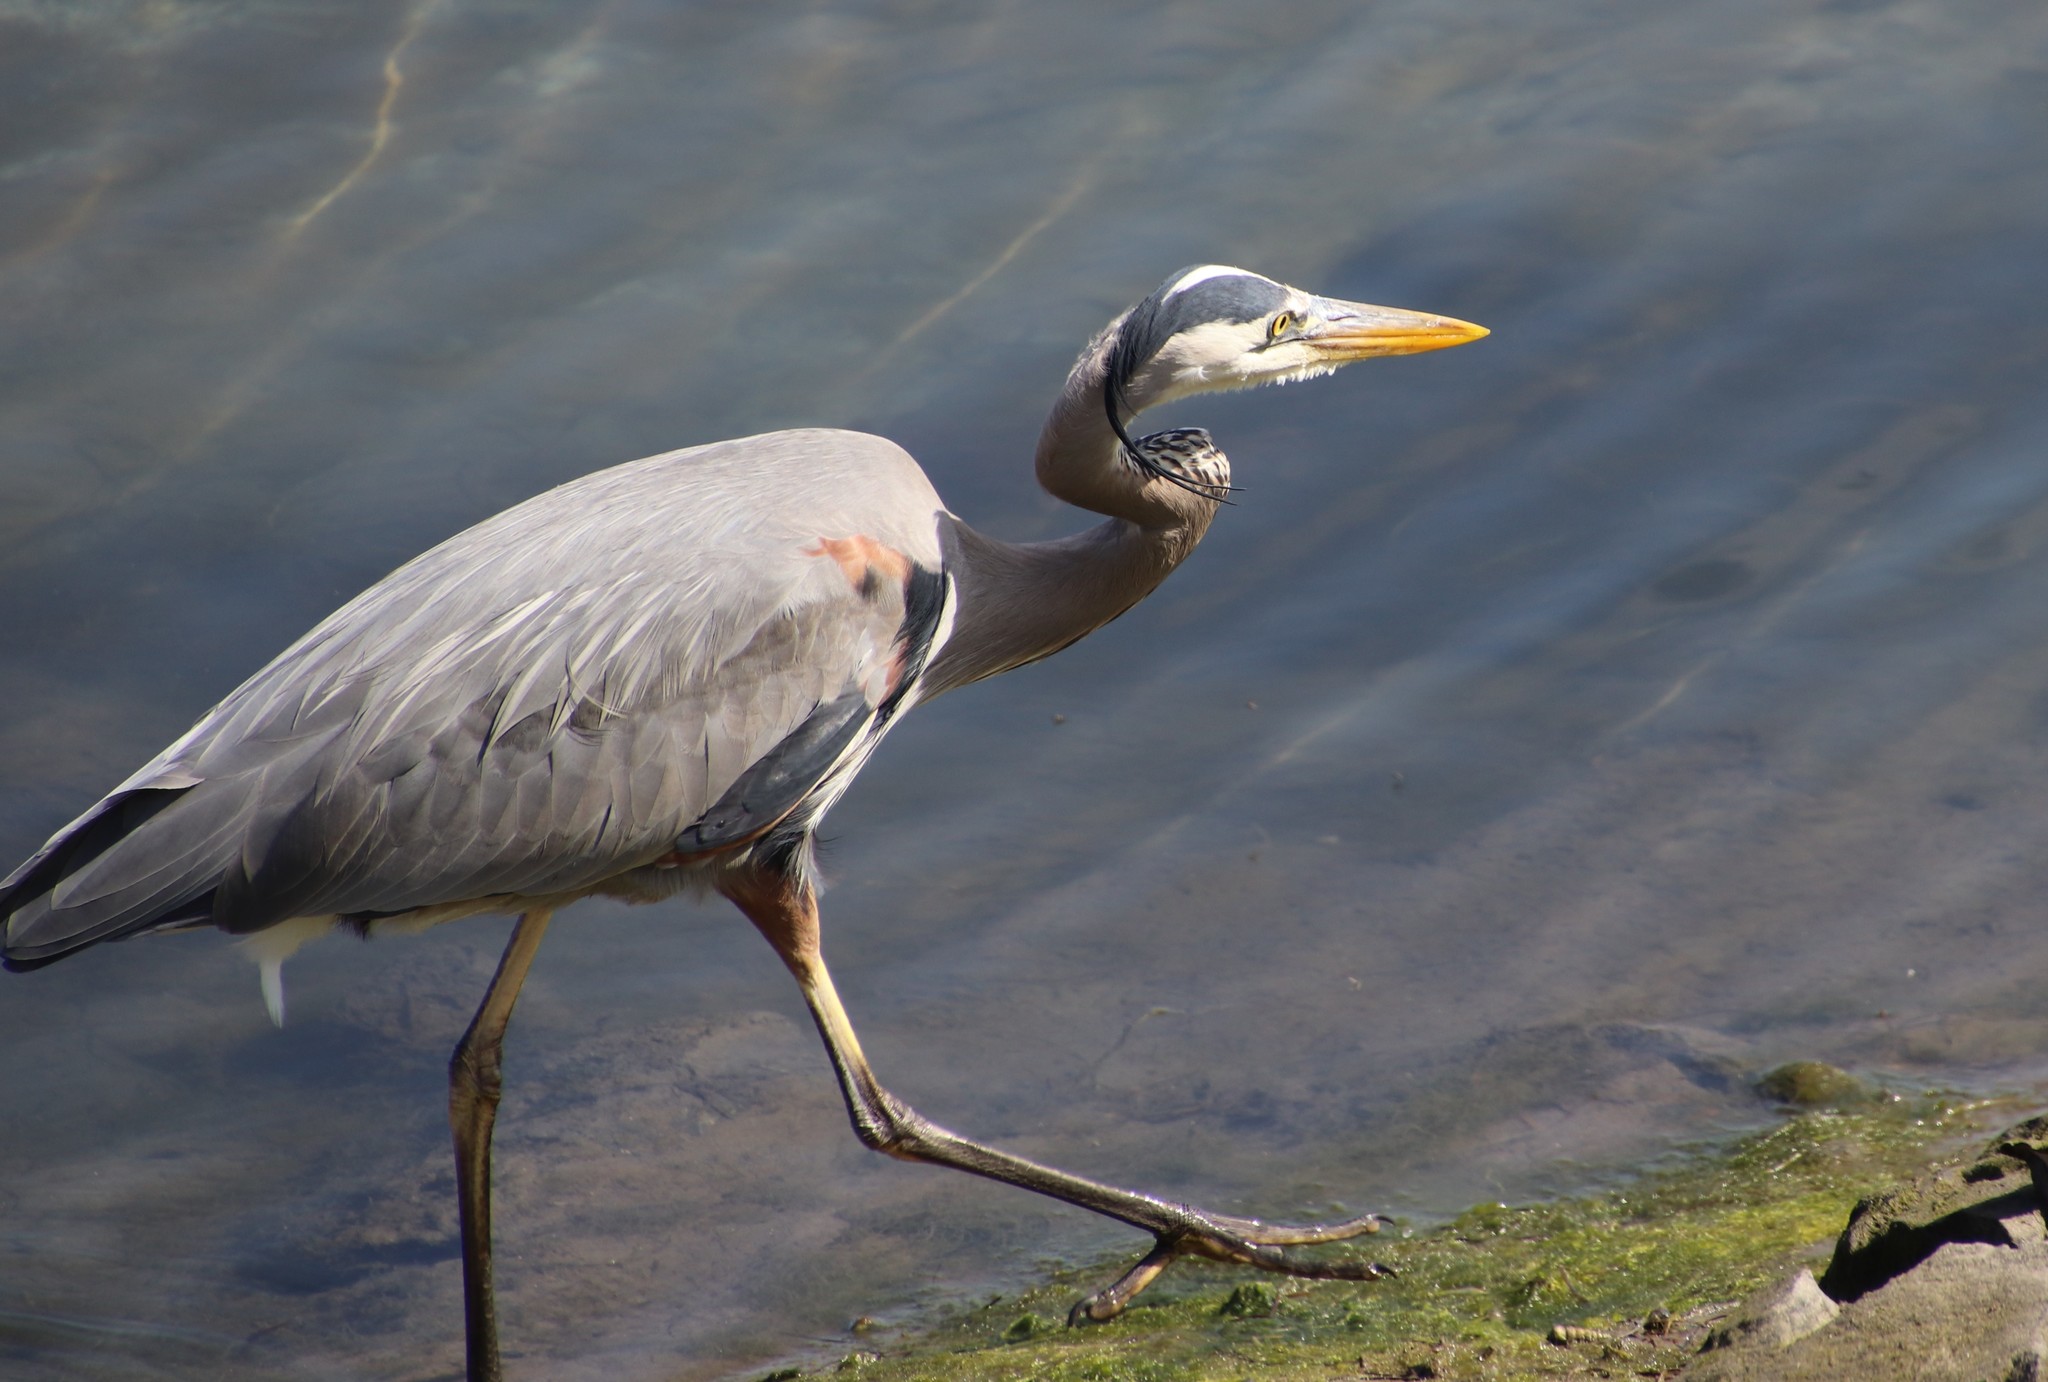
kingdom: Animalia
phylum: Chordata
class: Aves
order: Pelecaniformes
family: Ardeidae
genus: Ardea
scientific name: Ardea herodias
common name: Great blue heron
